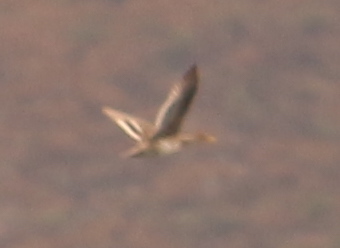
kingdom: Animalia
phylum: Chordata
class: Aves
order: Anseriformes
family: Anatidae
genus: Anas
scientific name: Anas georgica
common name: Yellow-billed pintail
